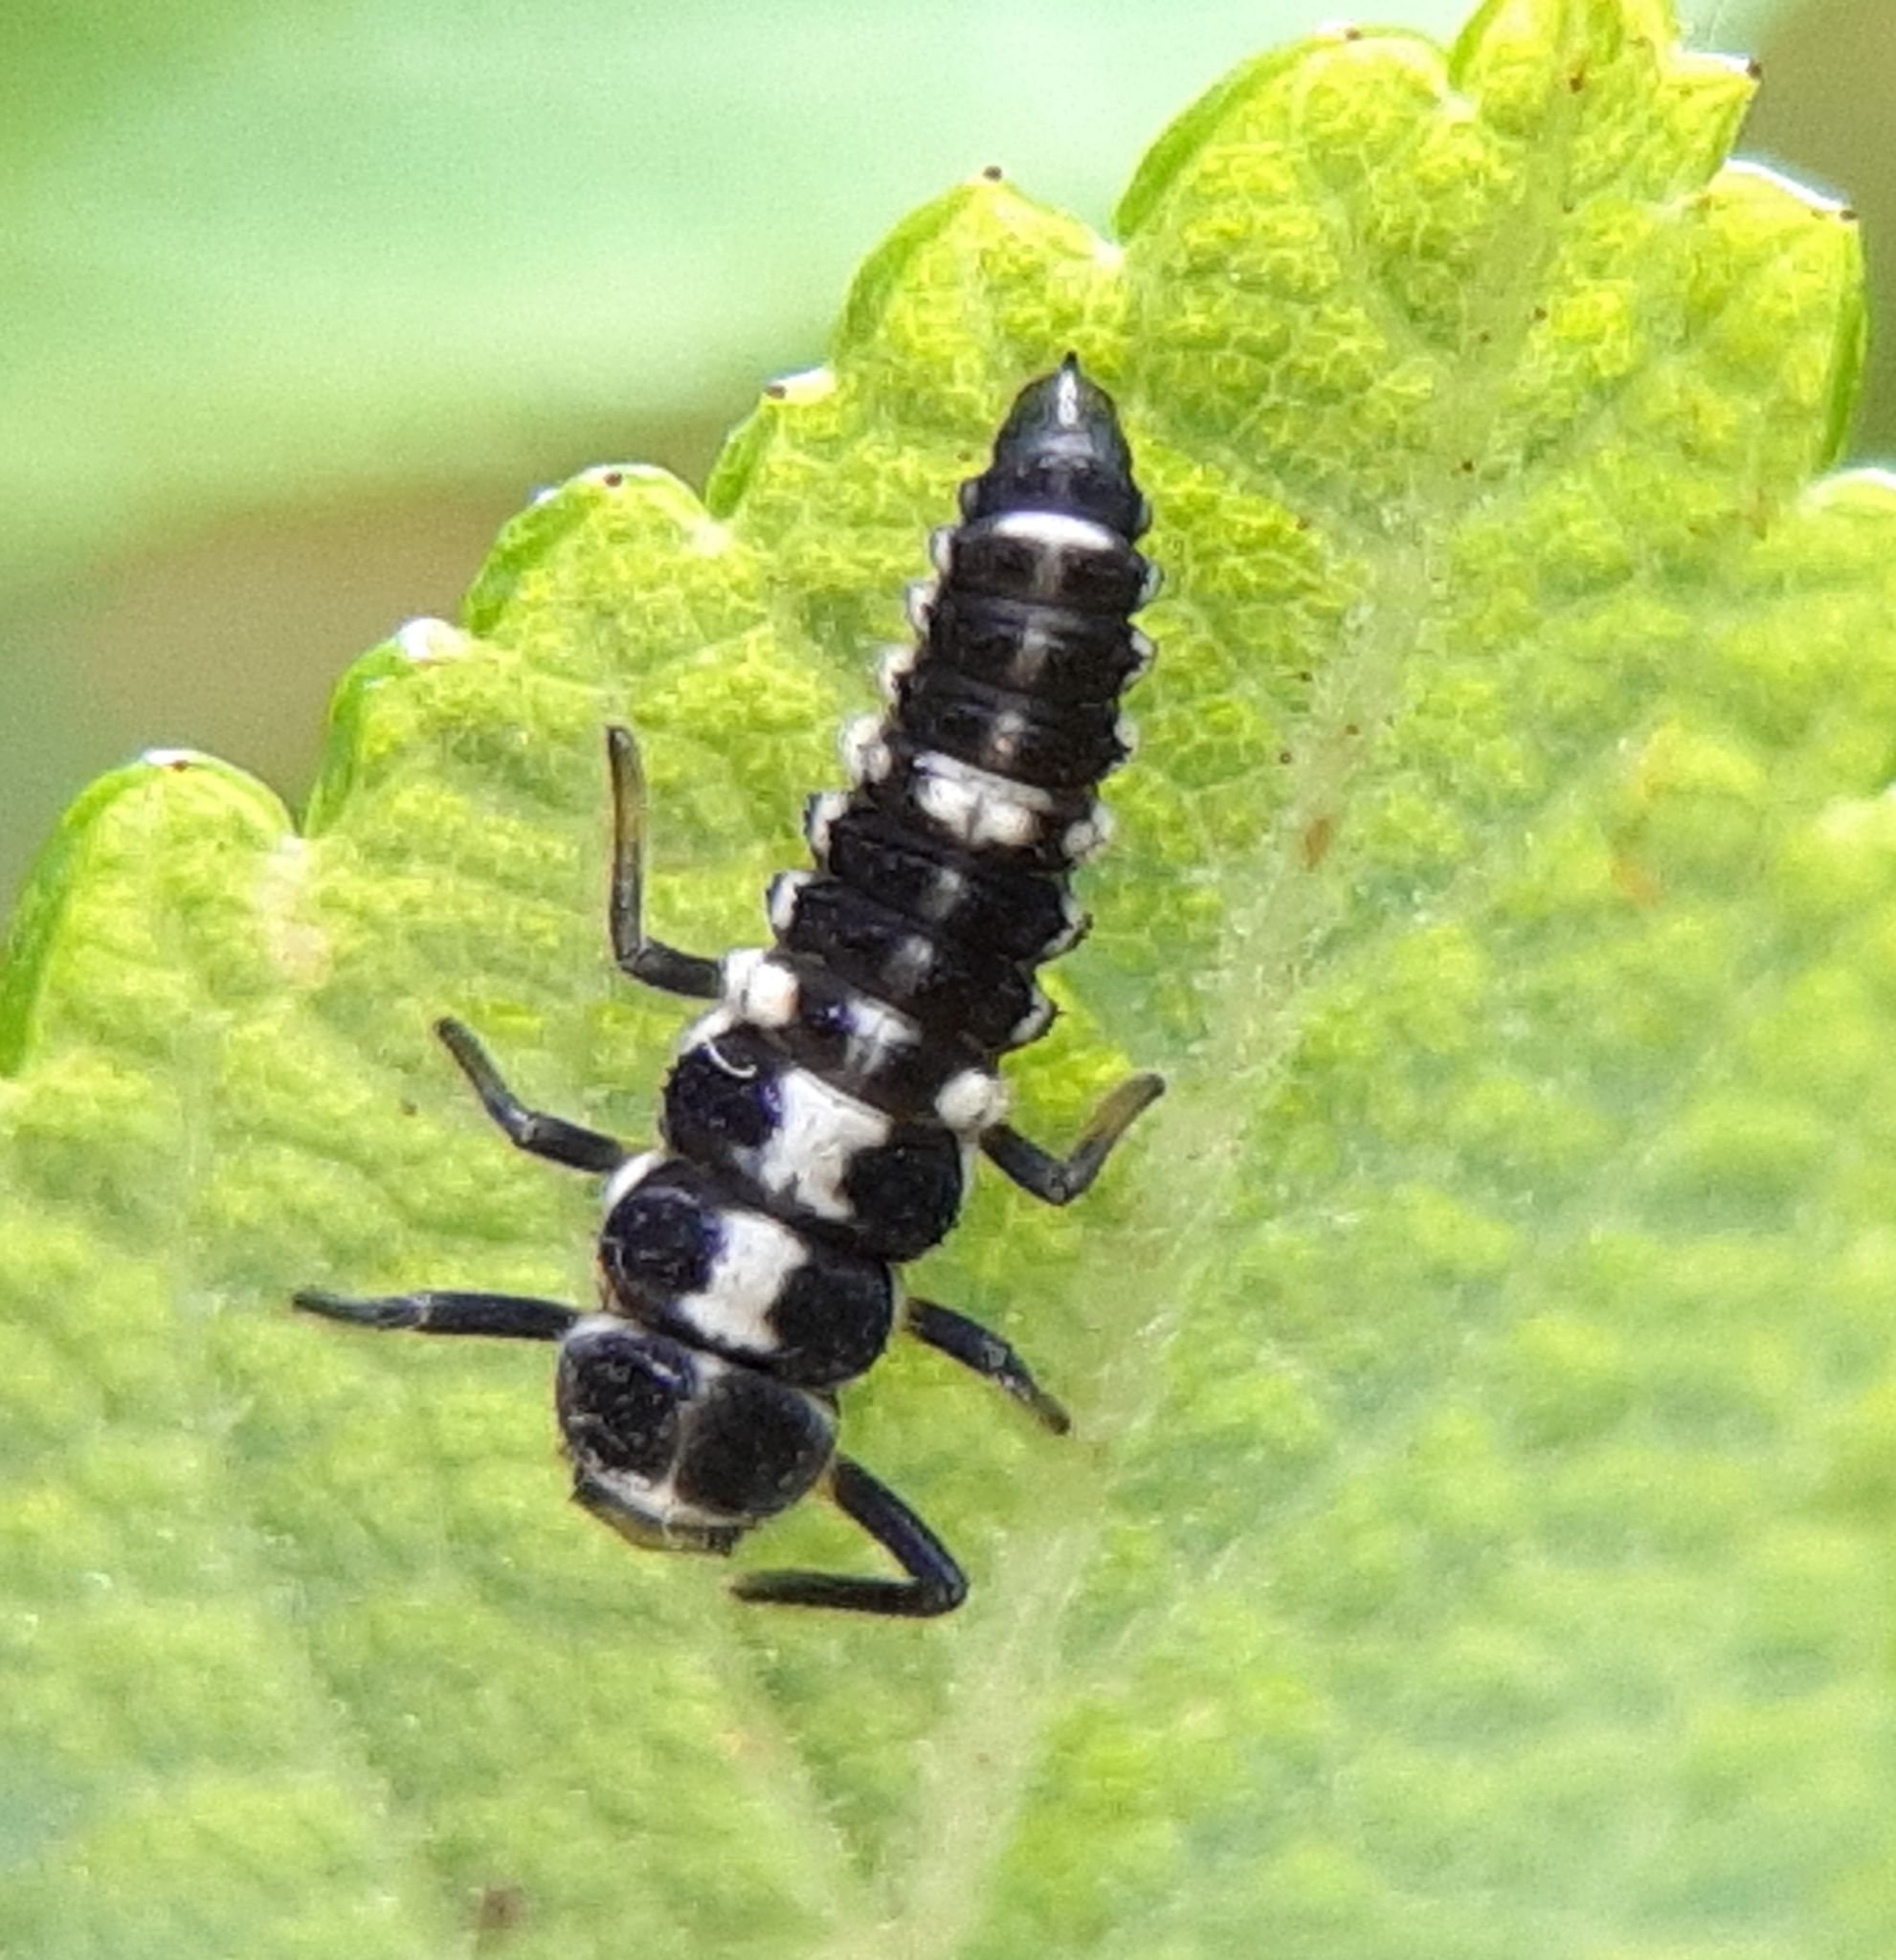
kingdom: Animalia
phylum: Arthropoda
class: Insecta
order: Coleoptera
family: Coccinellidae
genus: Propylaea
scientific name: Propylaea quatuordecimpunctata
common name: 14-spotted ladybird beetle
